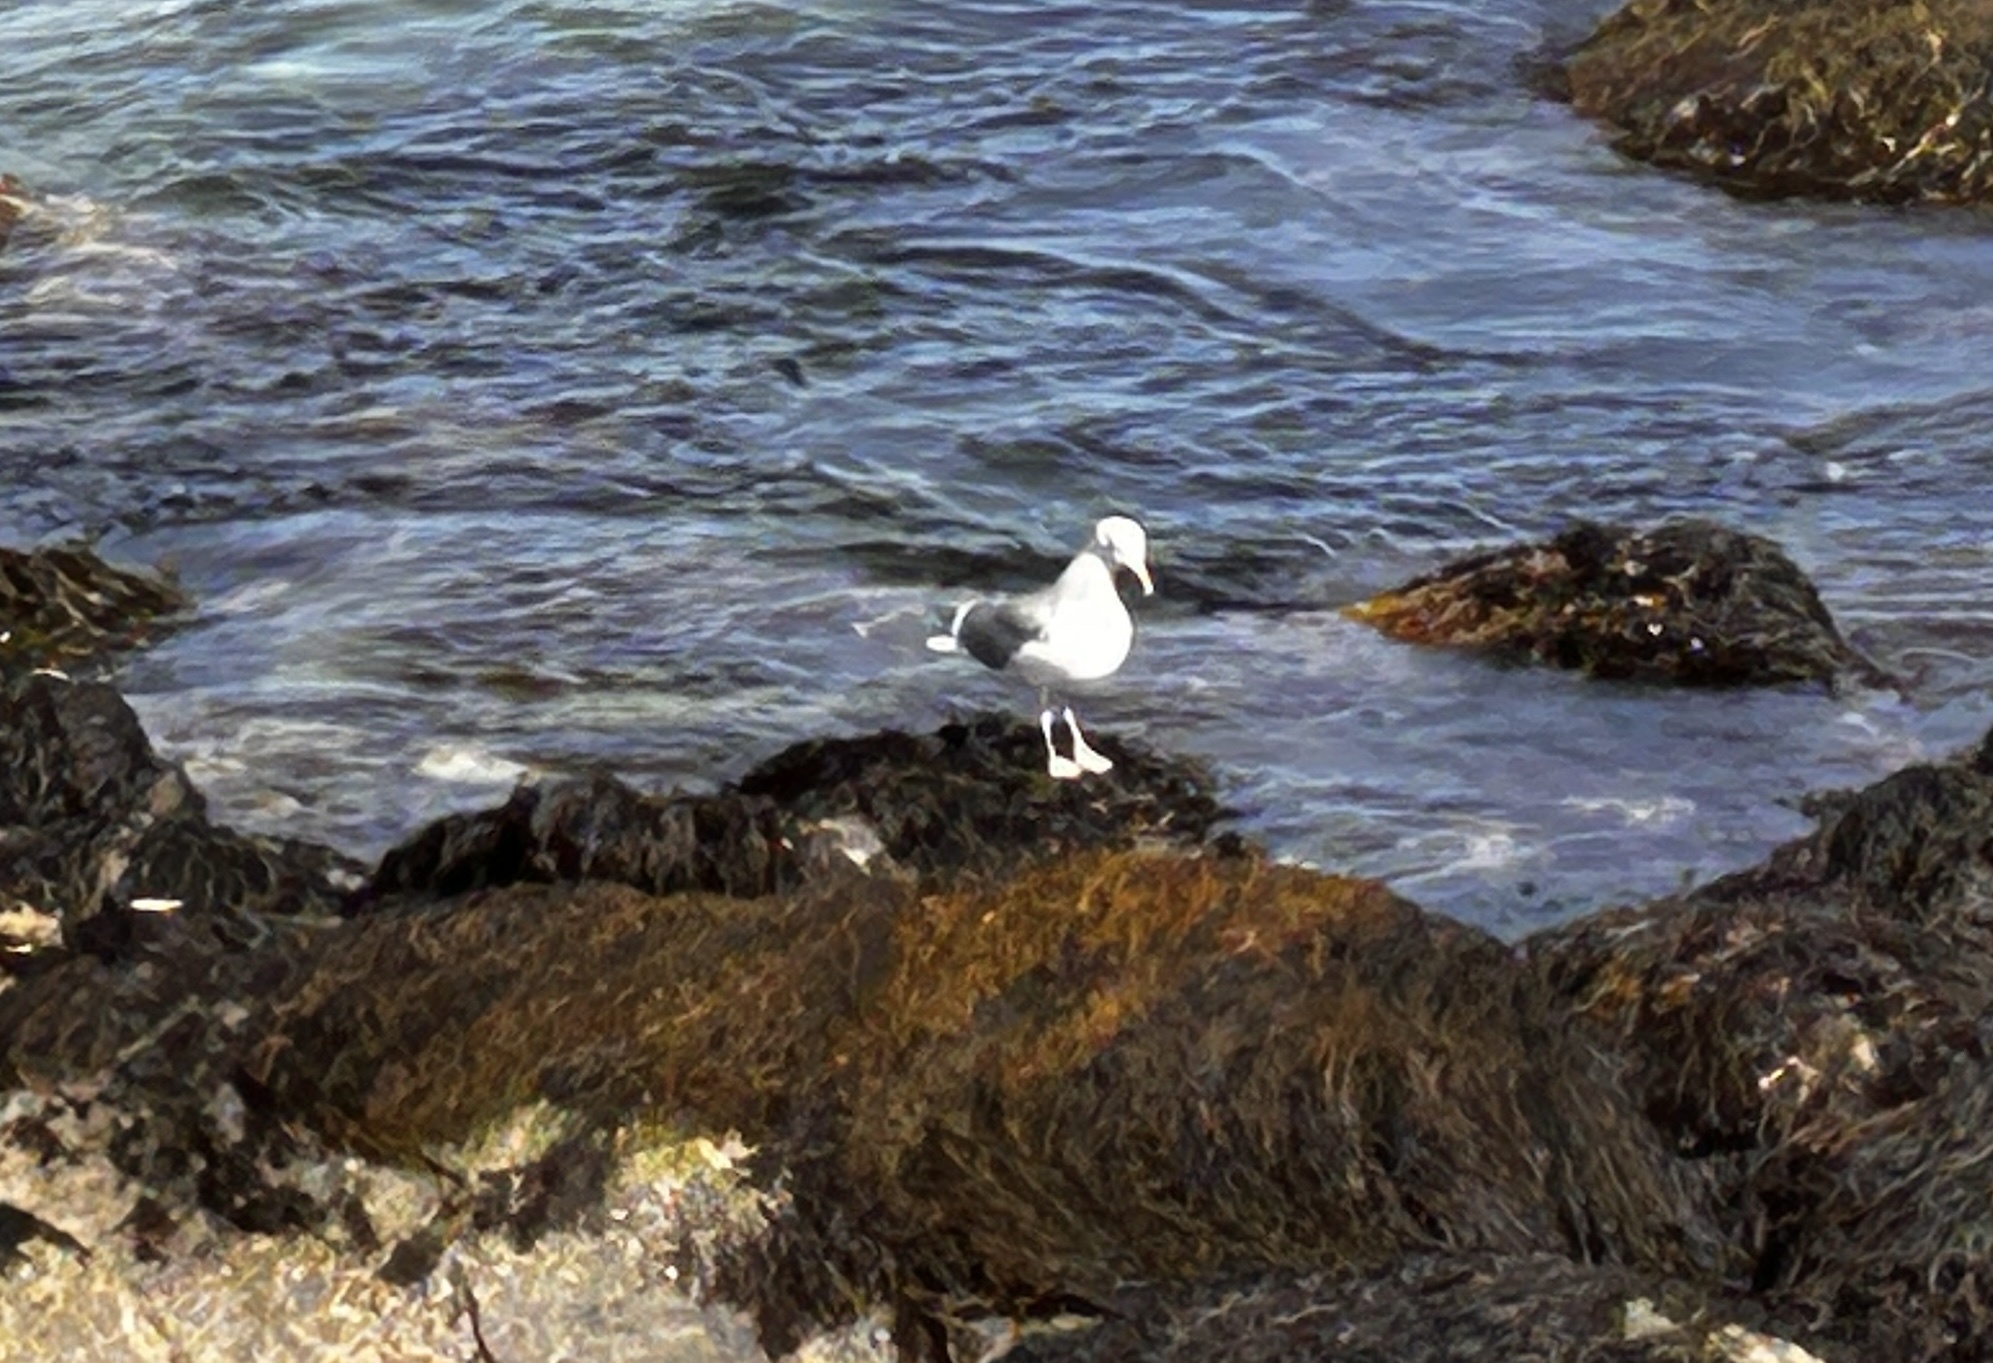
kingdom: Animalia
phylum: Chordata
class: Aves
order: Charadriiformes
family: Laridae
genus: Larus
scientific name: Larus marinus
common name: Great black-backed gull
